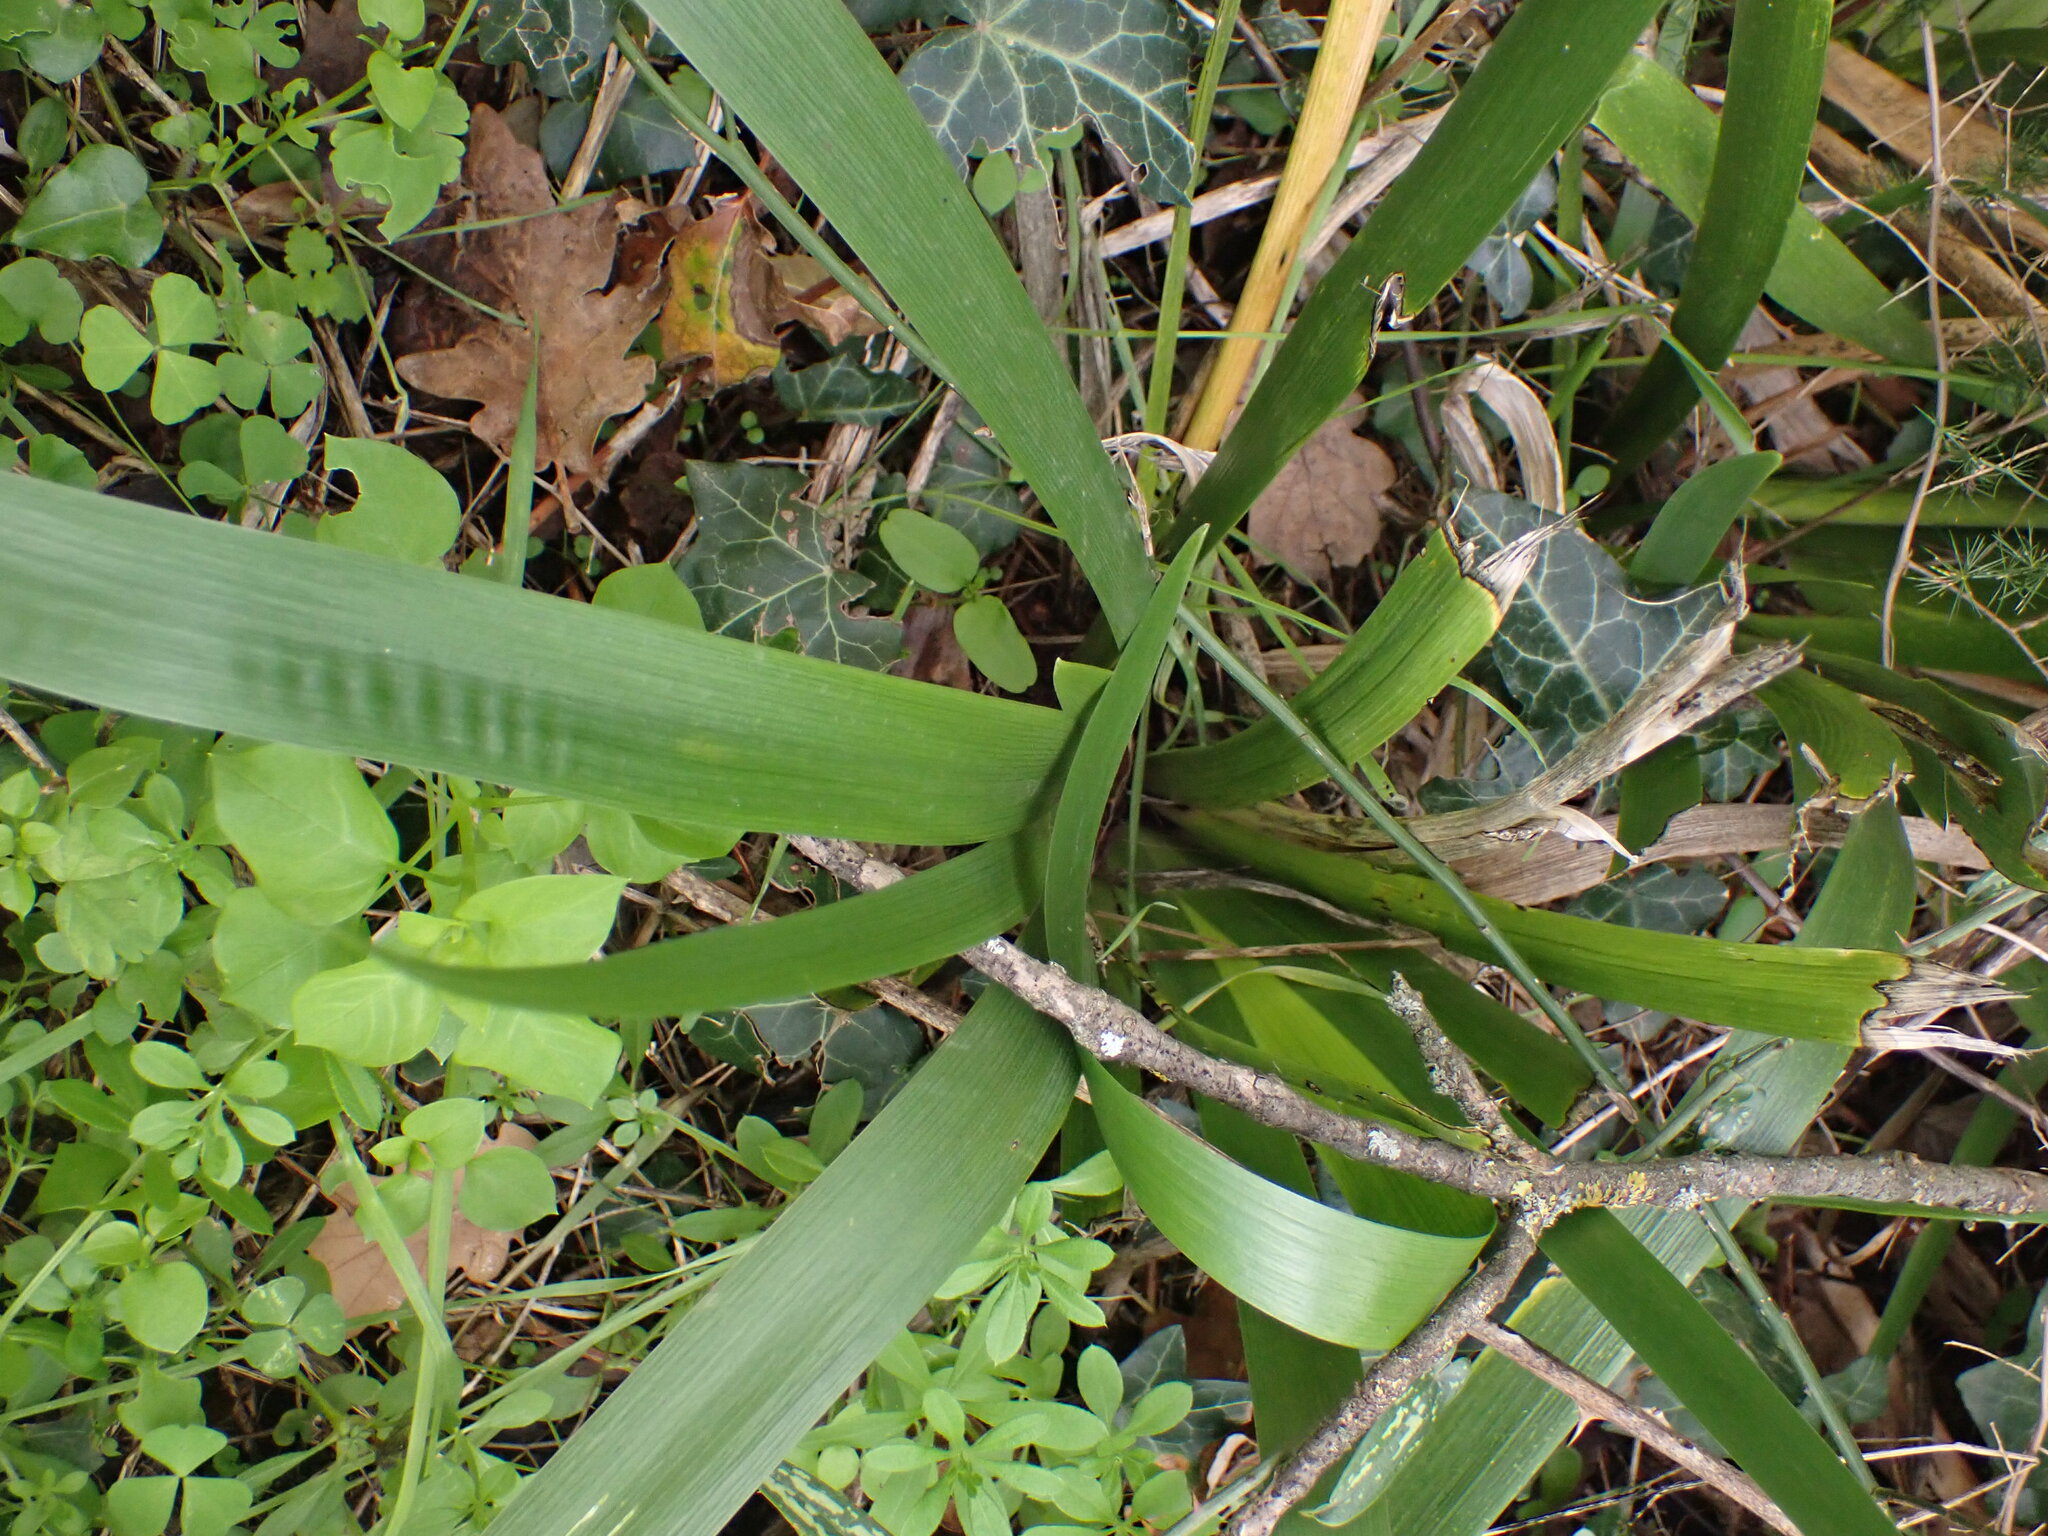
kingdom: Plantae
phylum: Tracheophyta
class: Liliopsida
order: Asparagales
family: Iridaceae
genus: Iris
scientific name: Iris foetidissima
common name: Stinking iris
